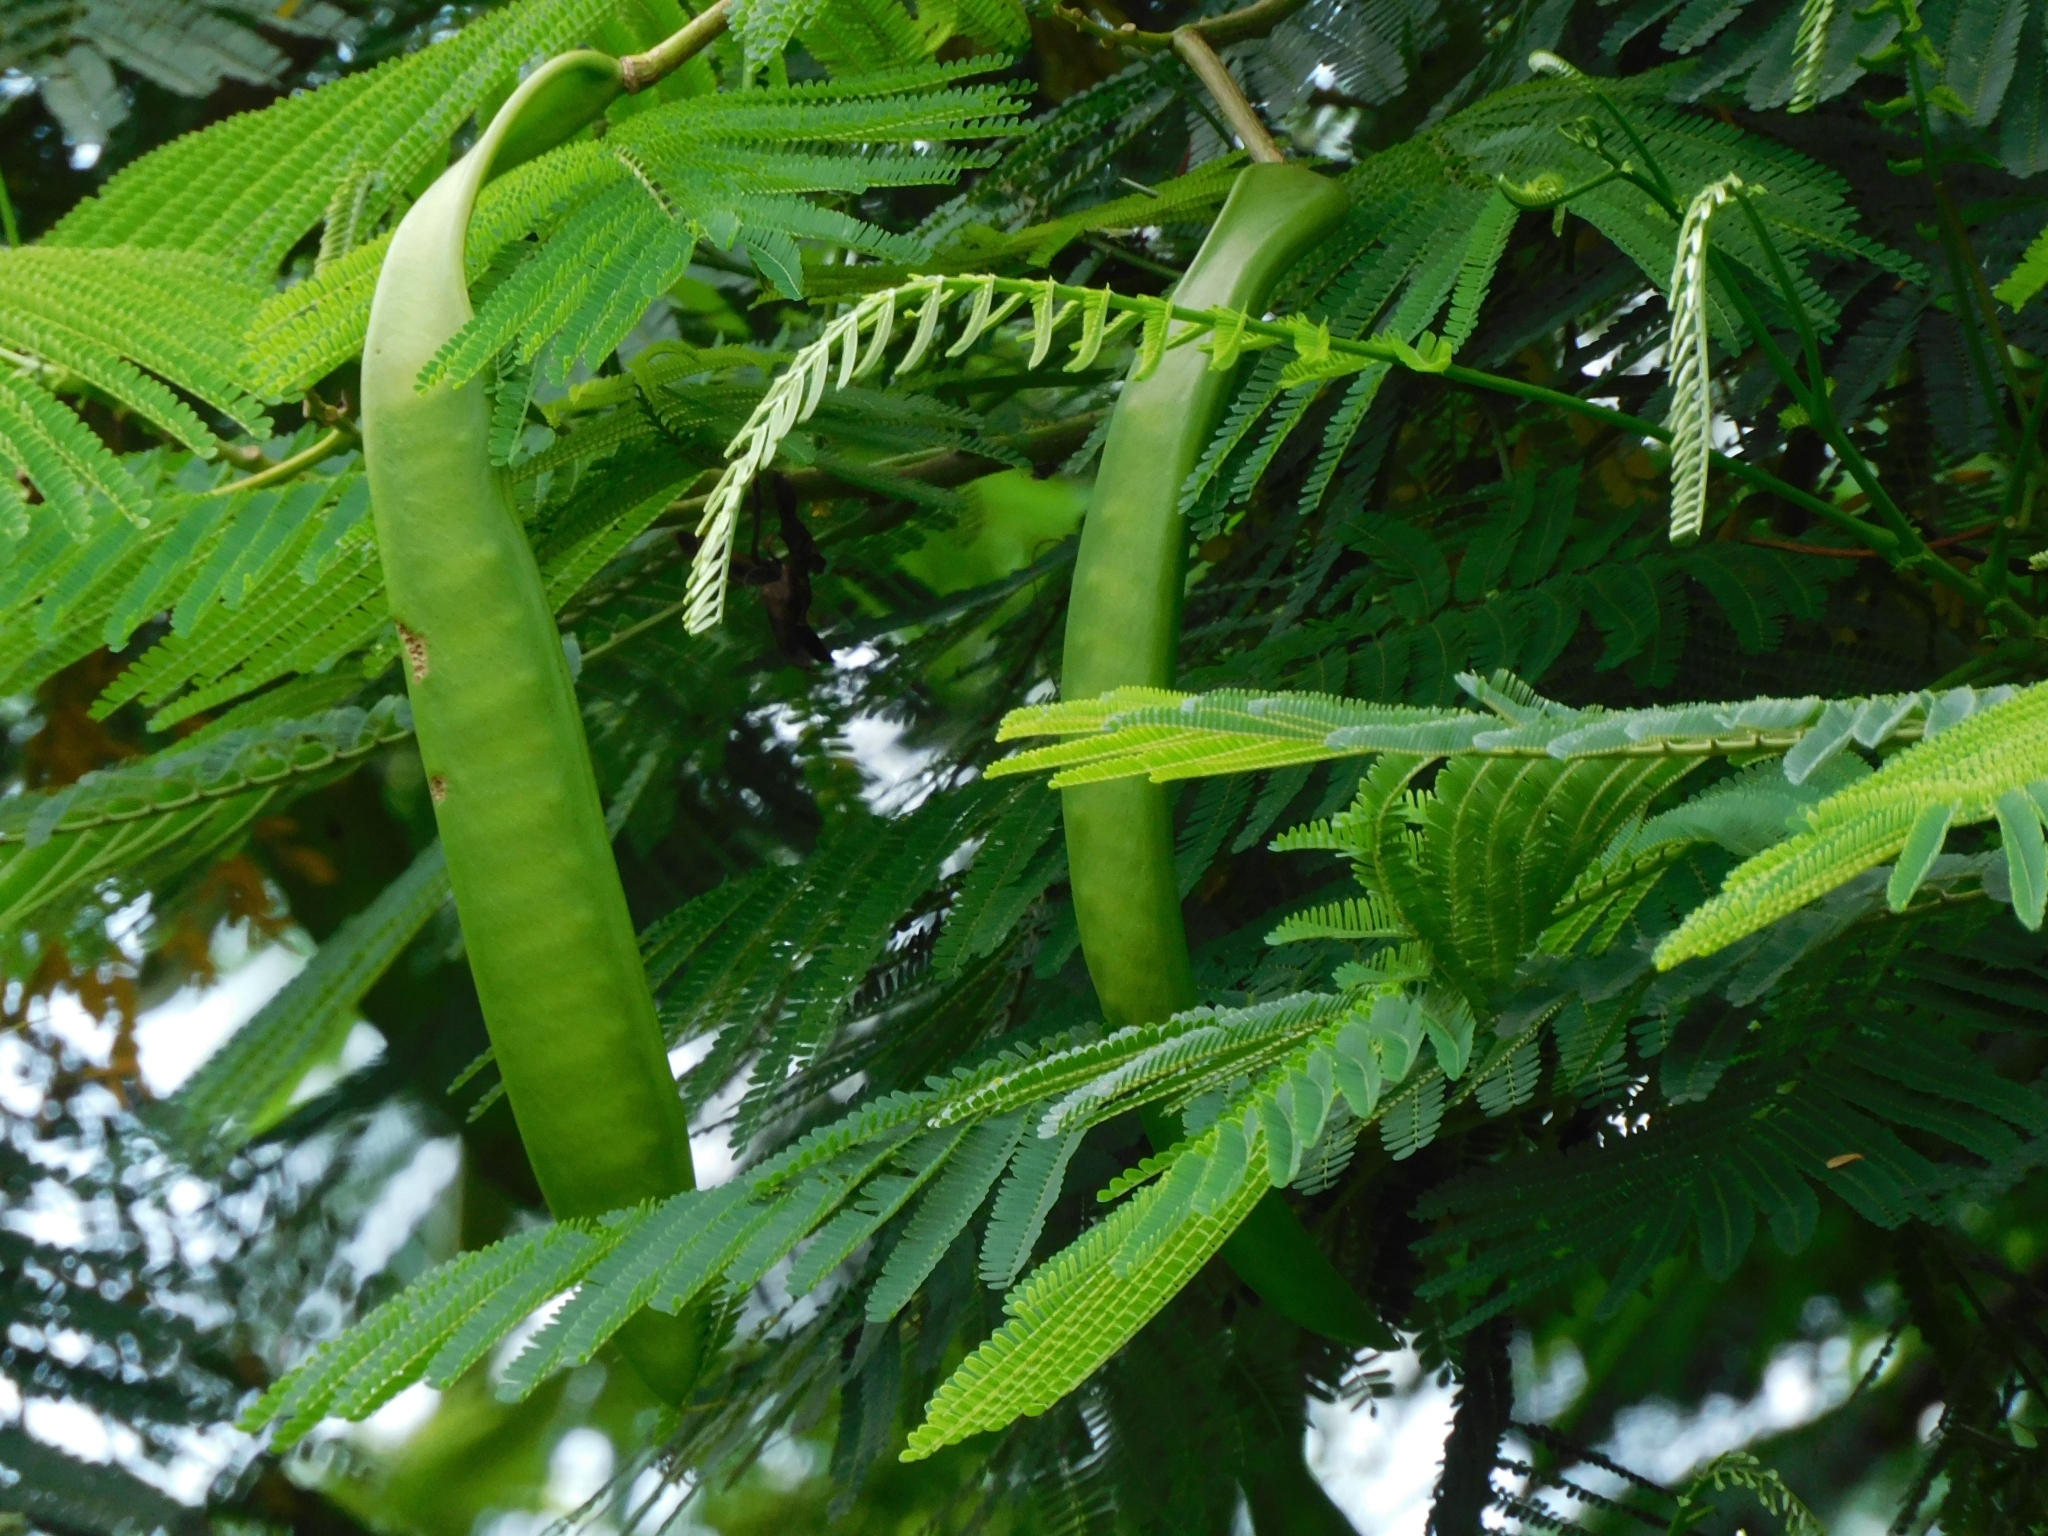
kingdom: Plantae
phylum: Tracheophyta
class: Magnoliopsida
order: Fabales
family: Fabaceae
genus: Delonix
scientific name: Delonix regia
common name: Royal poinciana
